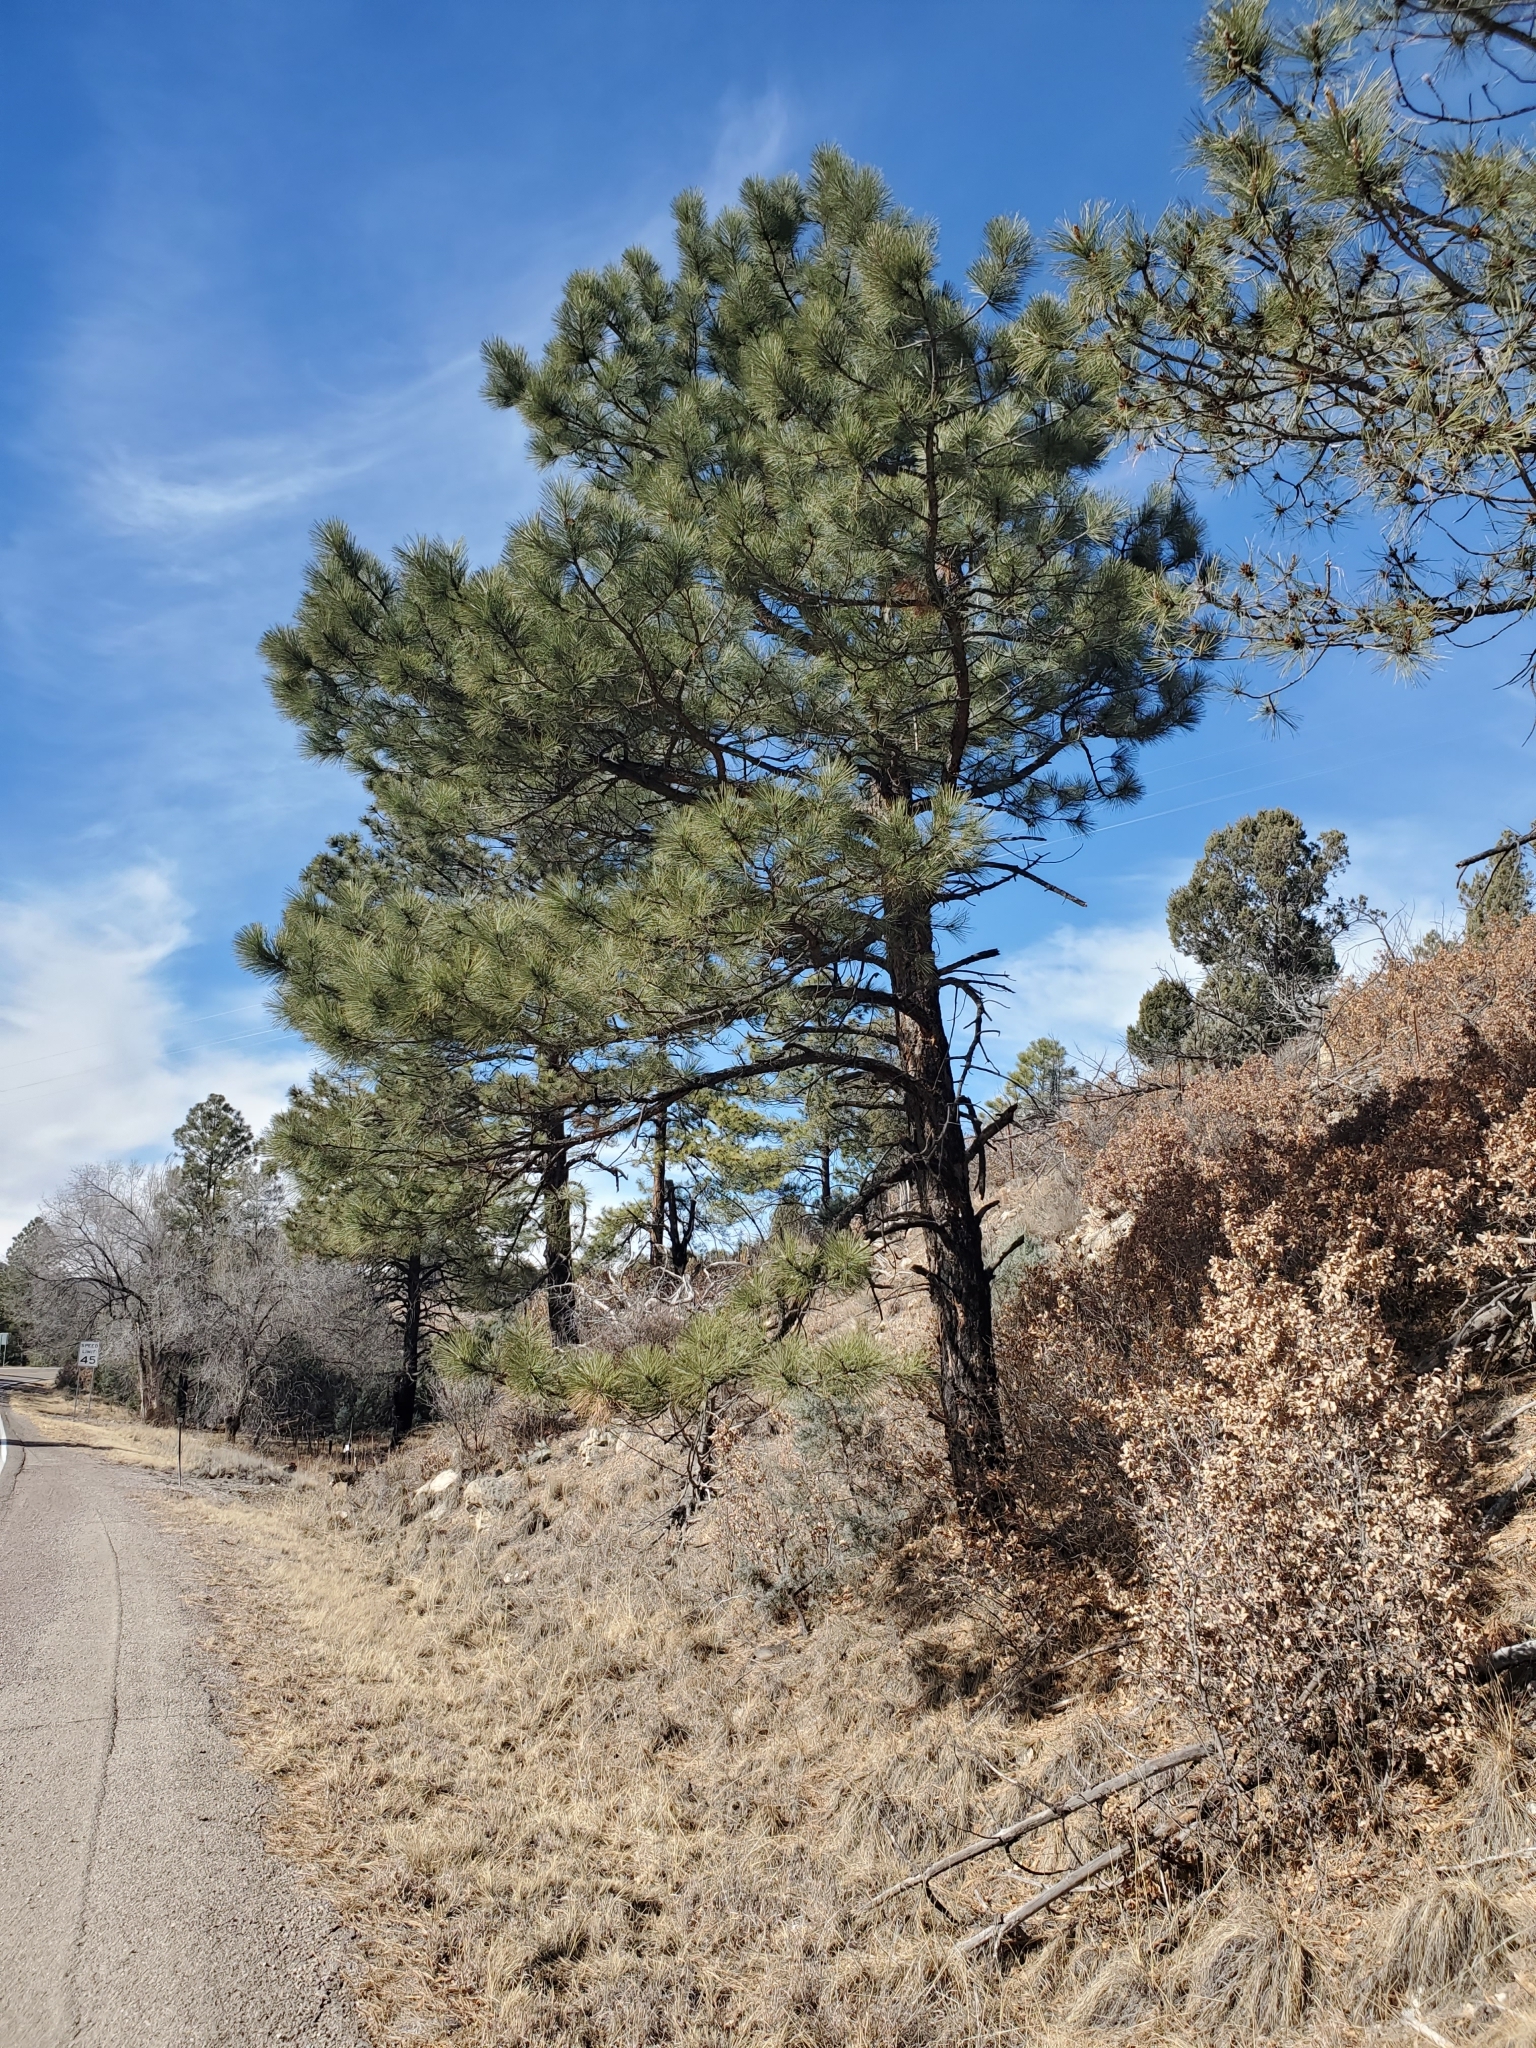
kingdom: Plantae
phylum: Tracheophyta
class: Pinopsida
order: Pinales
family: Pinaceae
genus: Pinus
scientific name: Pinus ponderosa
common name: Western yellow-pine
